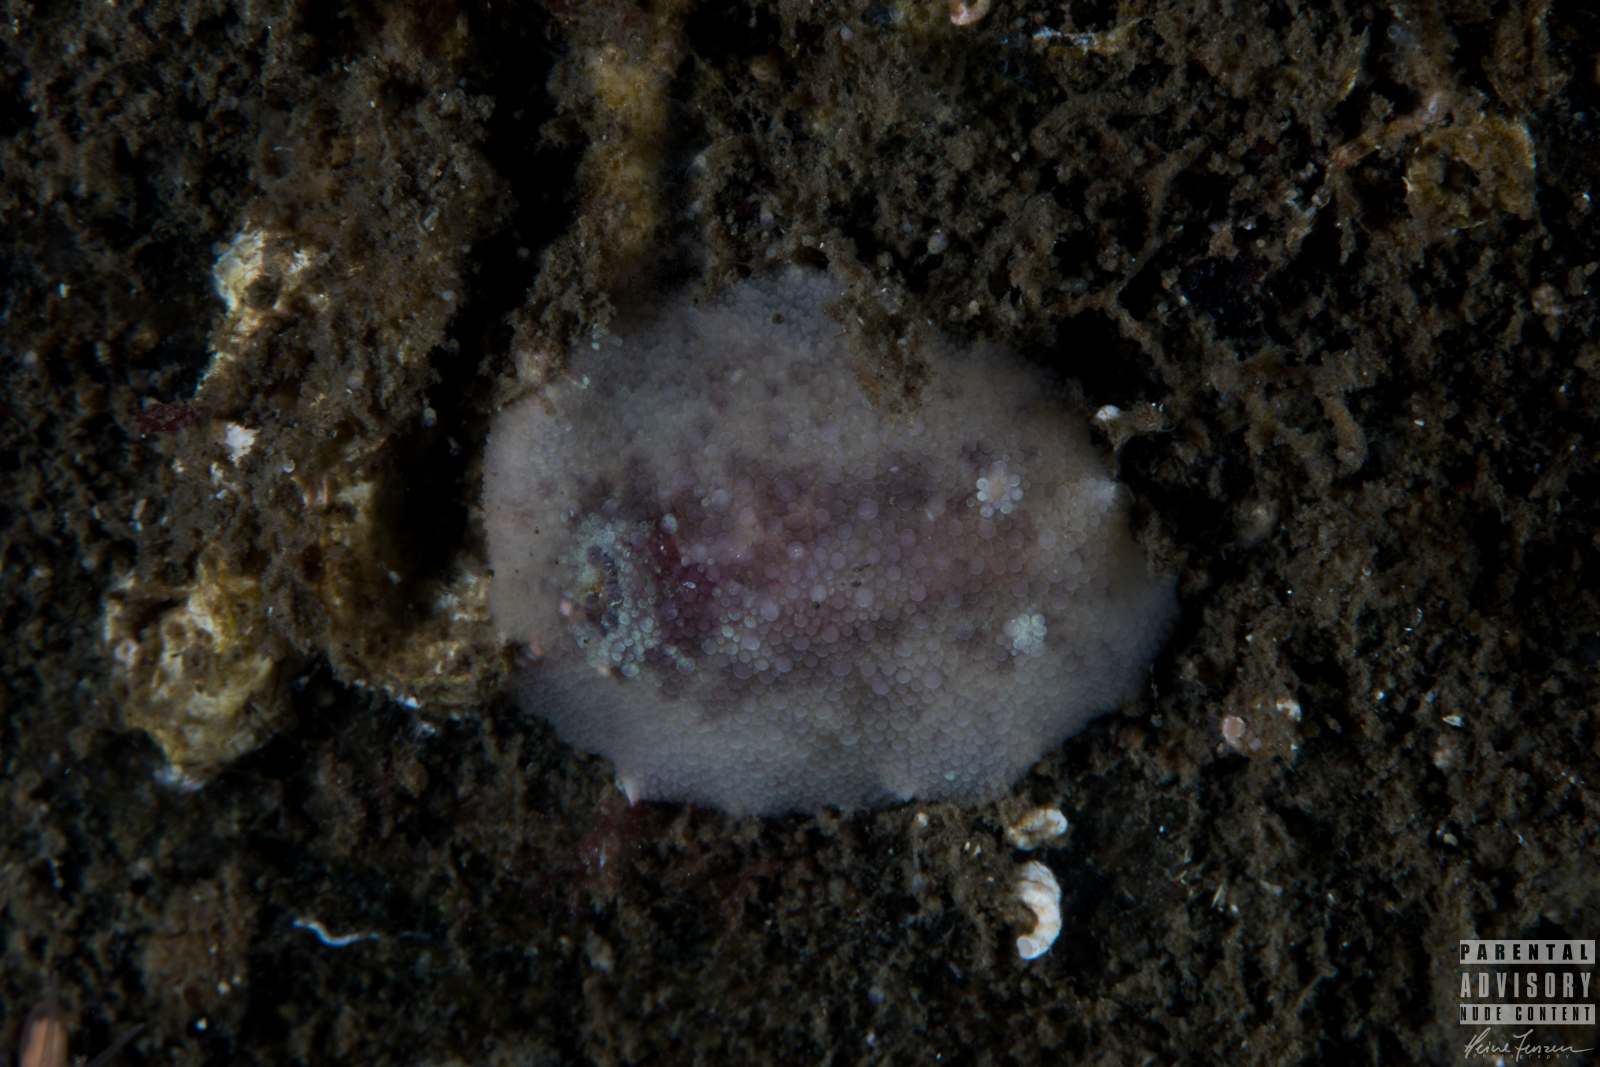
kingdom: Animalia
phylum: Mollusca
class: Gastropoda
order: Nudibranchia
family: Dorididae
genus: Doris
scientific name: Doris pseudoargus
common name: Sea lemon
